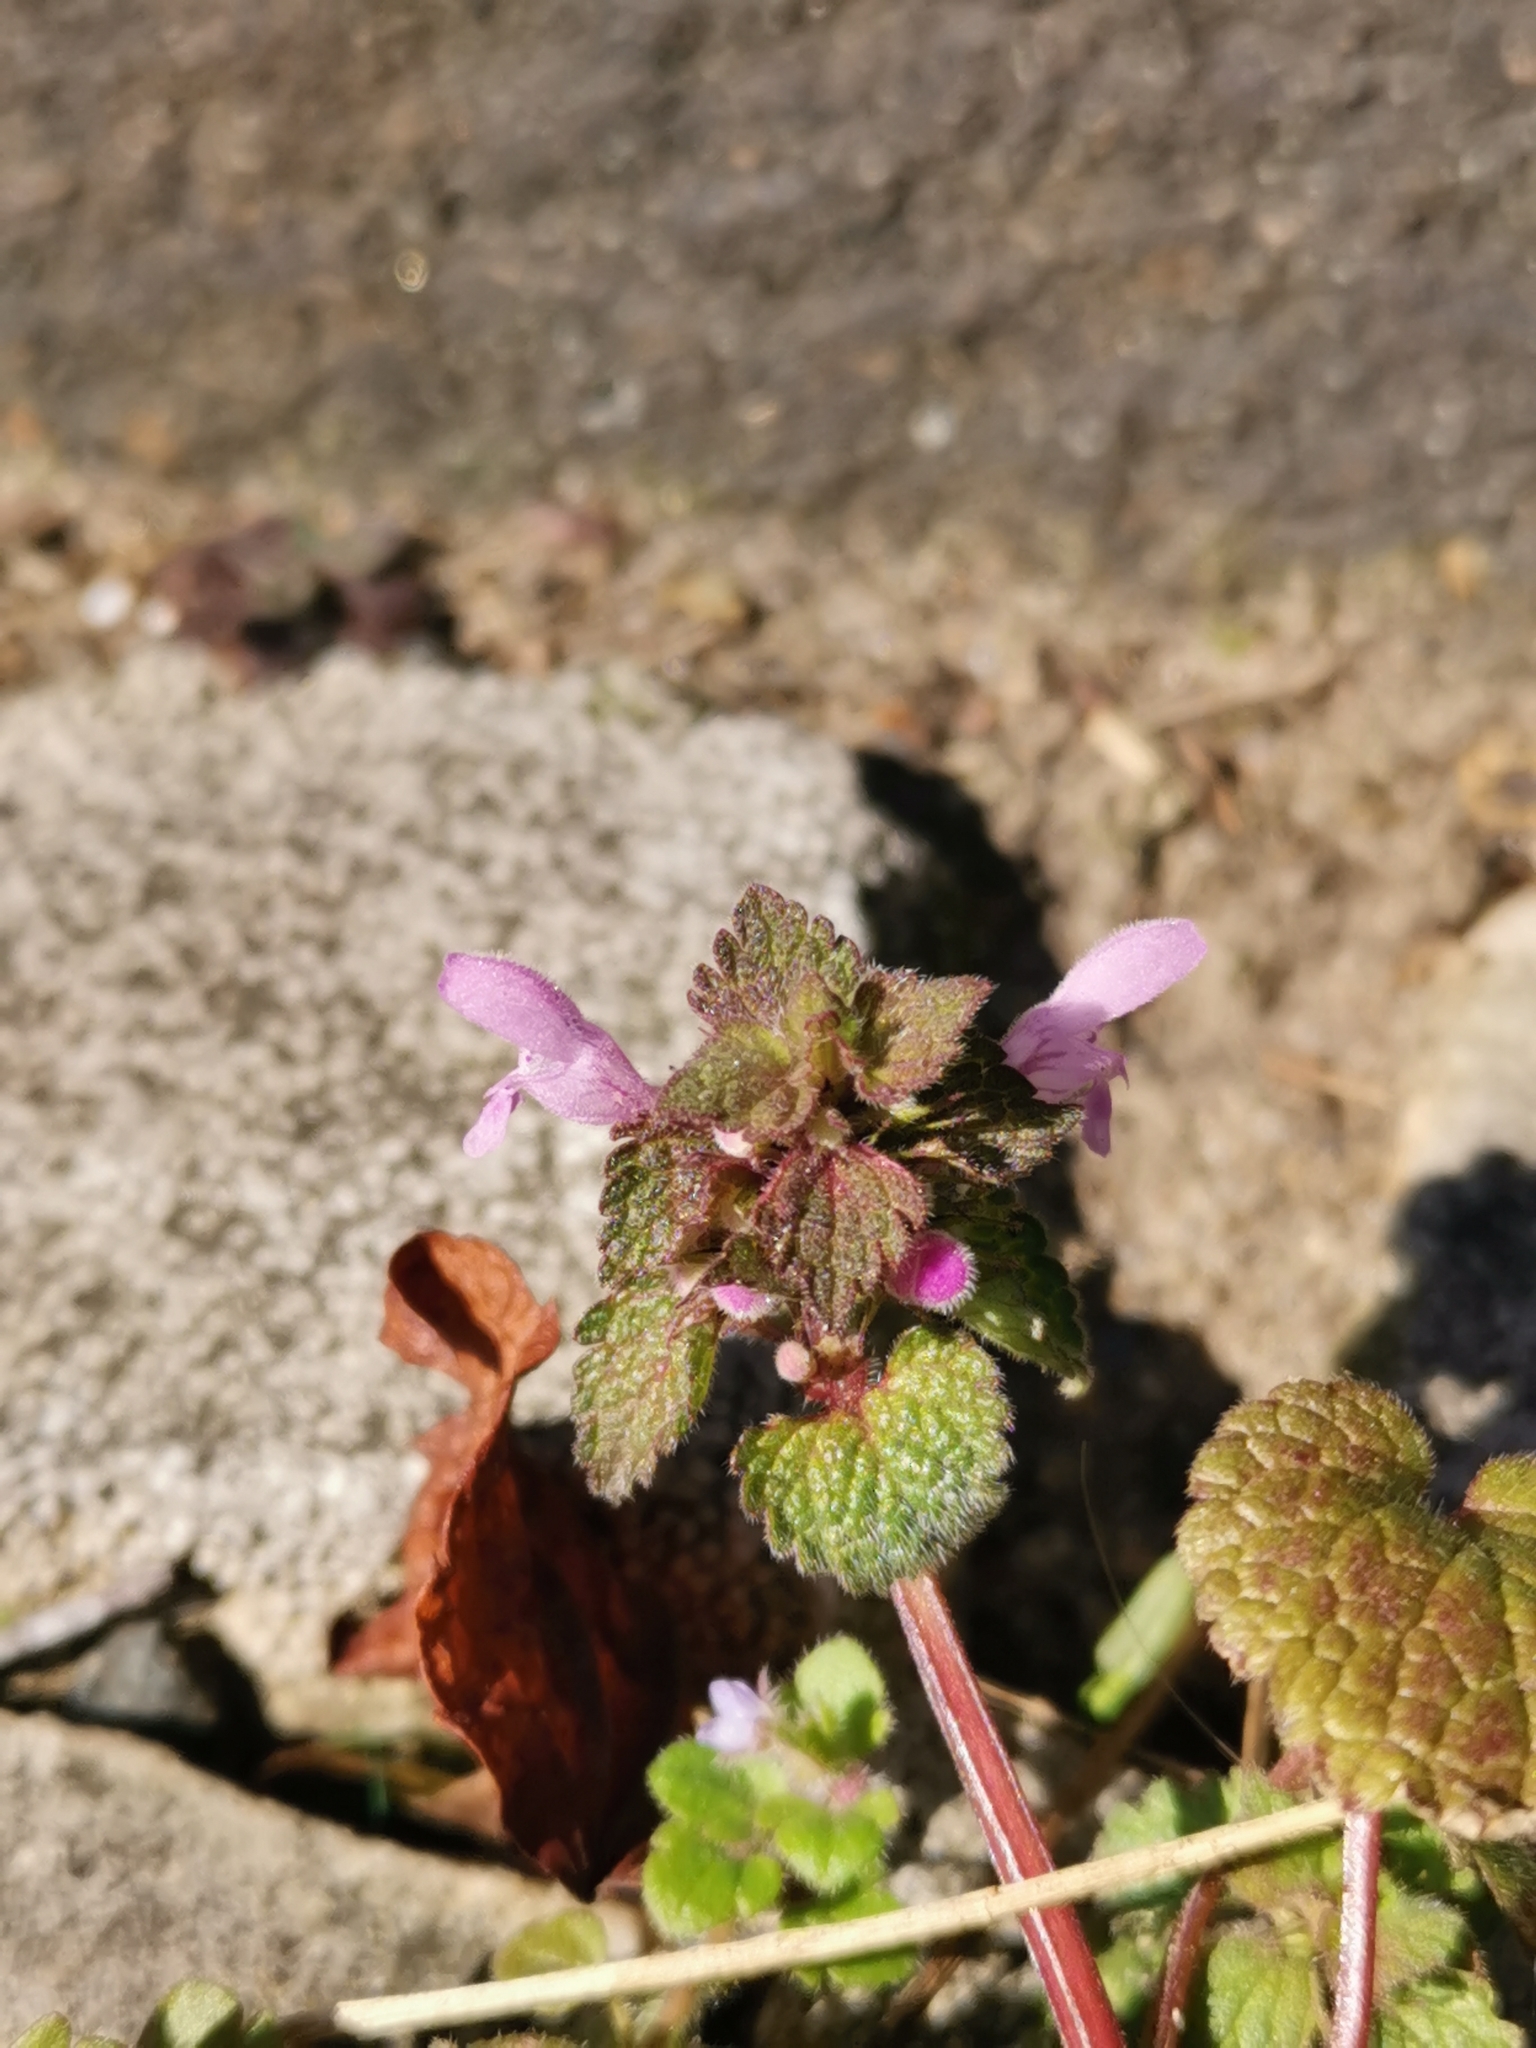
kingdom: Plantae
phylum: Tracheophyta
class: Magnoliopsida
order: Lamiales
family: Lamiaceae
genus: Lamium
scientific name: Lamium purpureum
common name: Red dead-nettle
